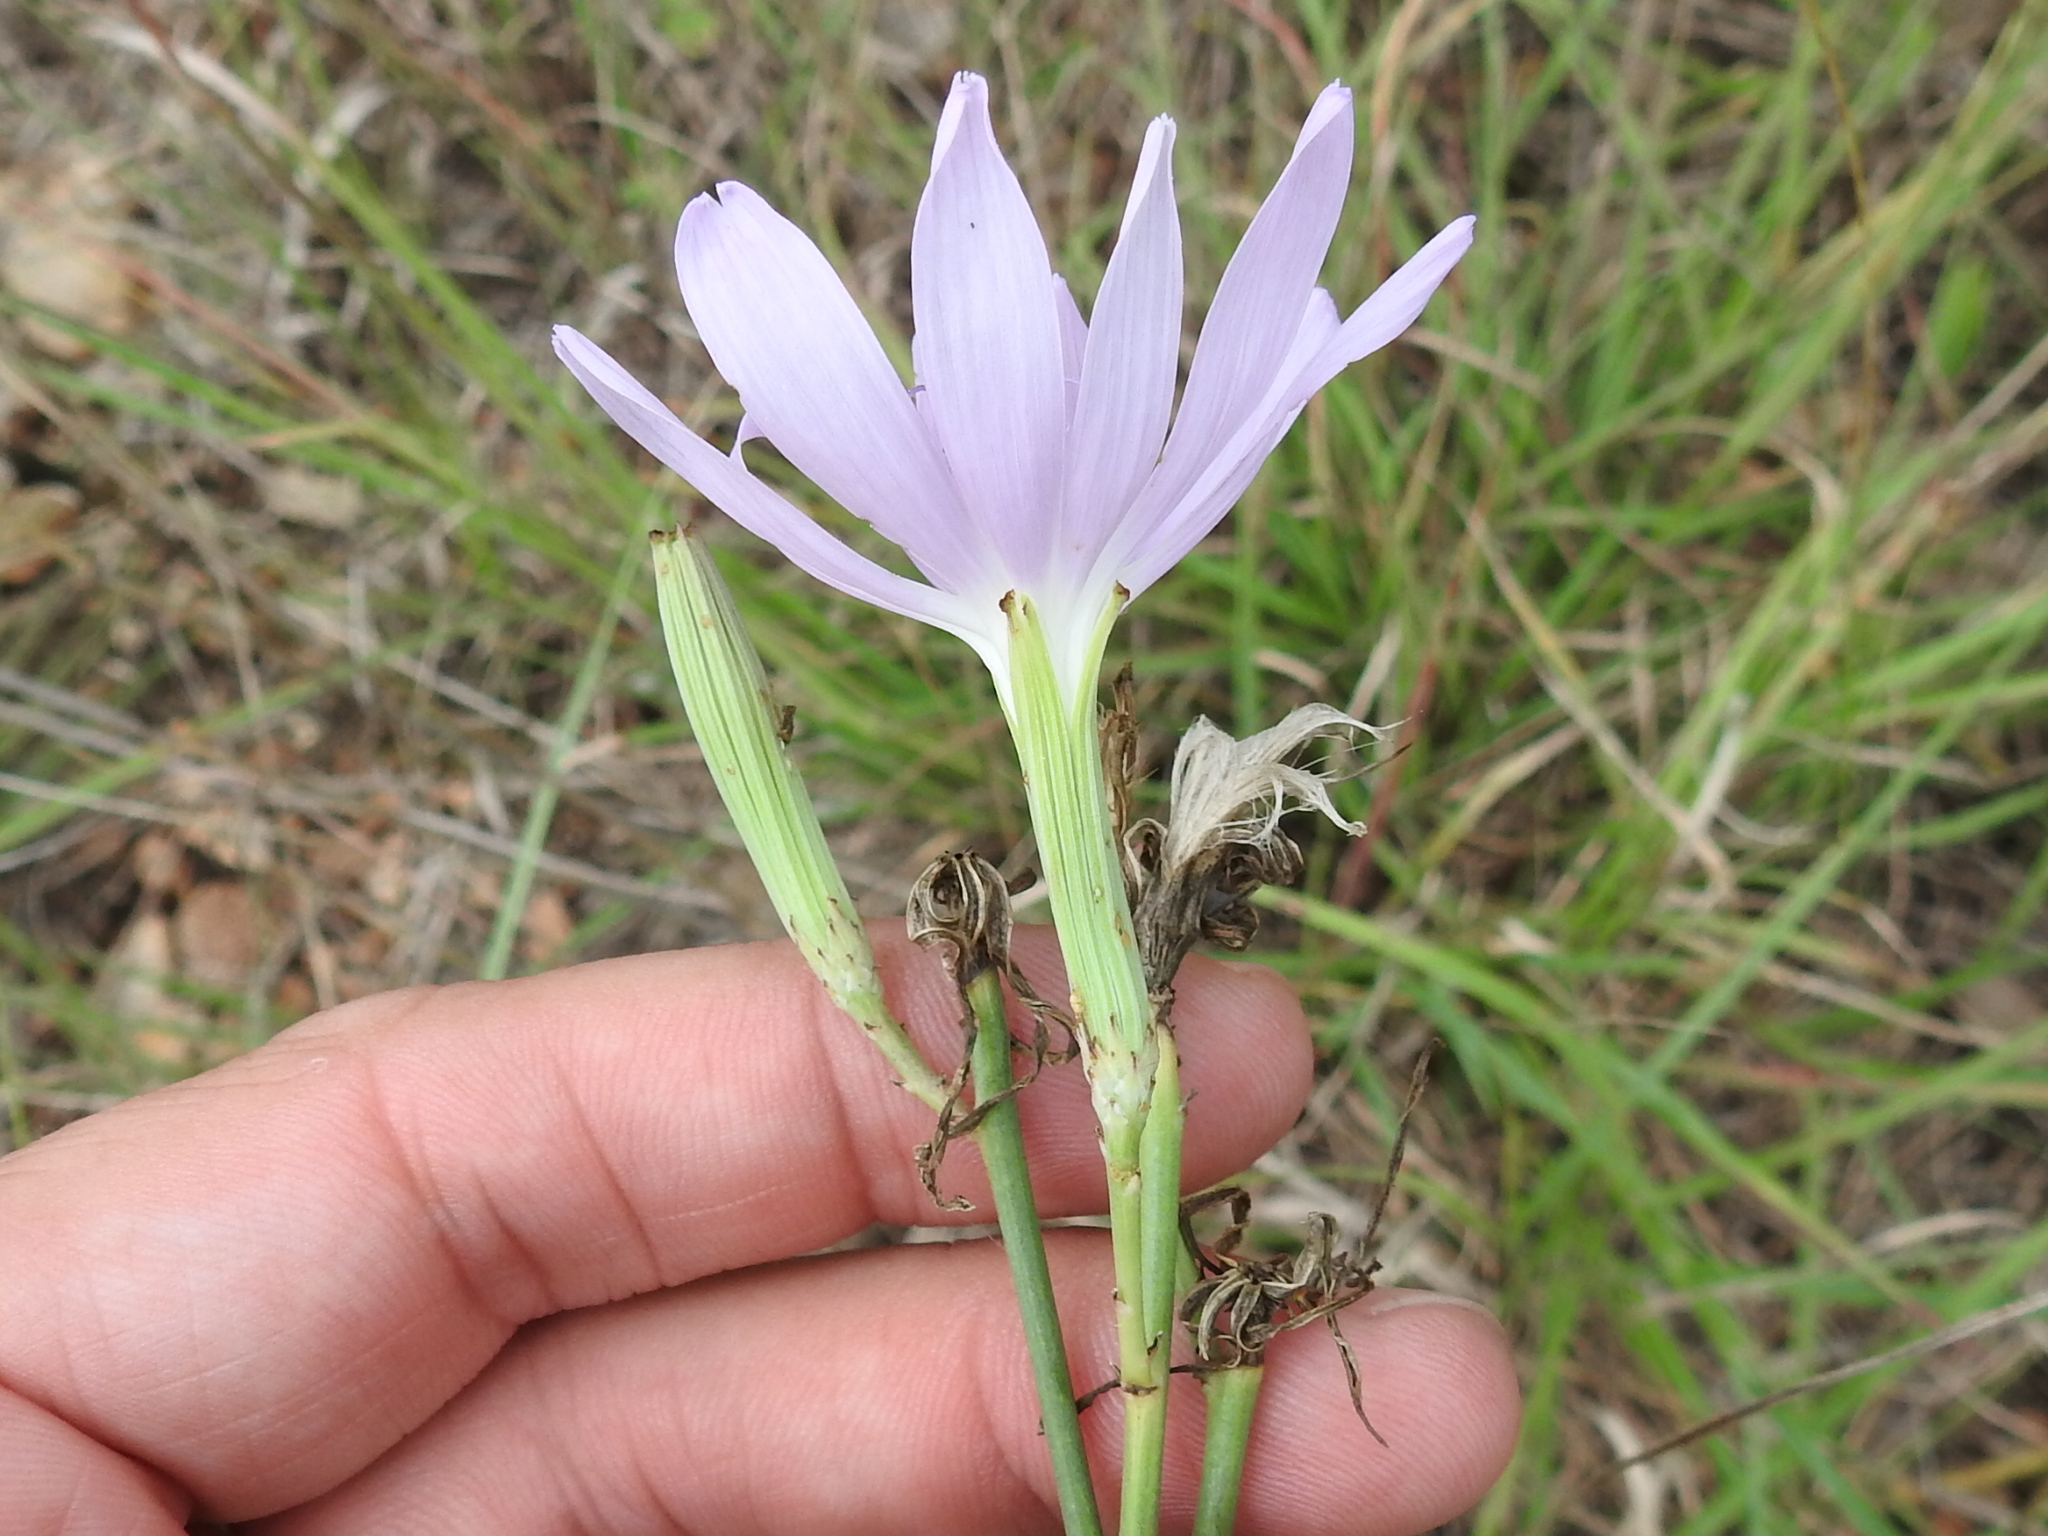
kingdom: Plantae
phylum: Tracheophyta
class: Magnoliopsida
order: Asterales
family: Asteraceae
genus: Lygodesmia
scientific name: Lygodesmia texana
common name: Texas skeleton-plant
